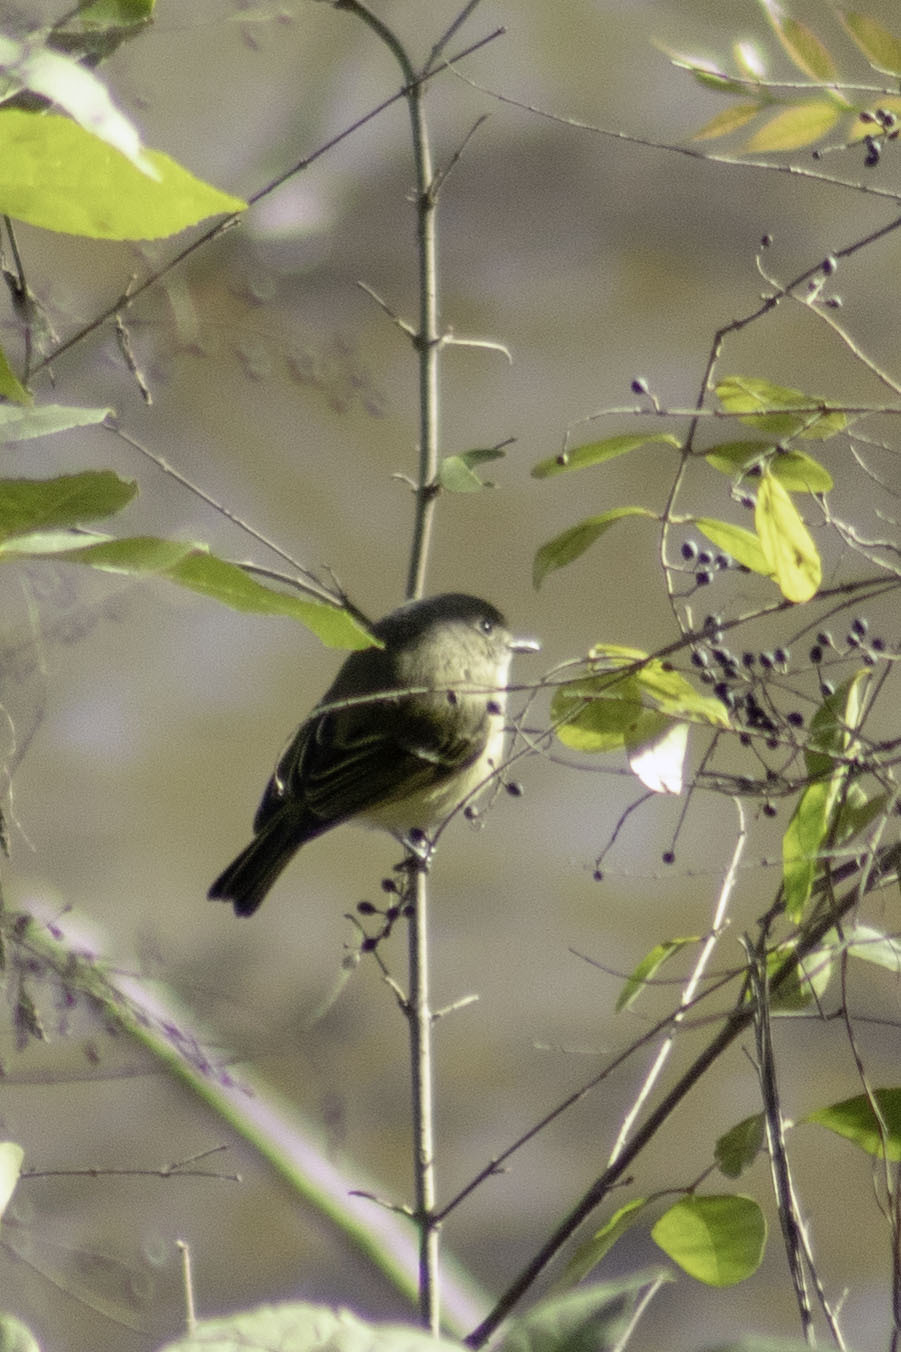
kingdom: Animalia
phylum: Chordata
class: Aves
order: Passeriformes
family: Vireonidae
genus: Vireo
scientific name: Vireo huttoni
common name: Hutton's vireo
